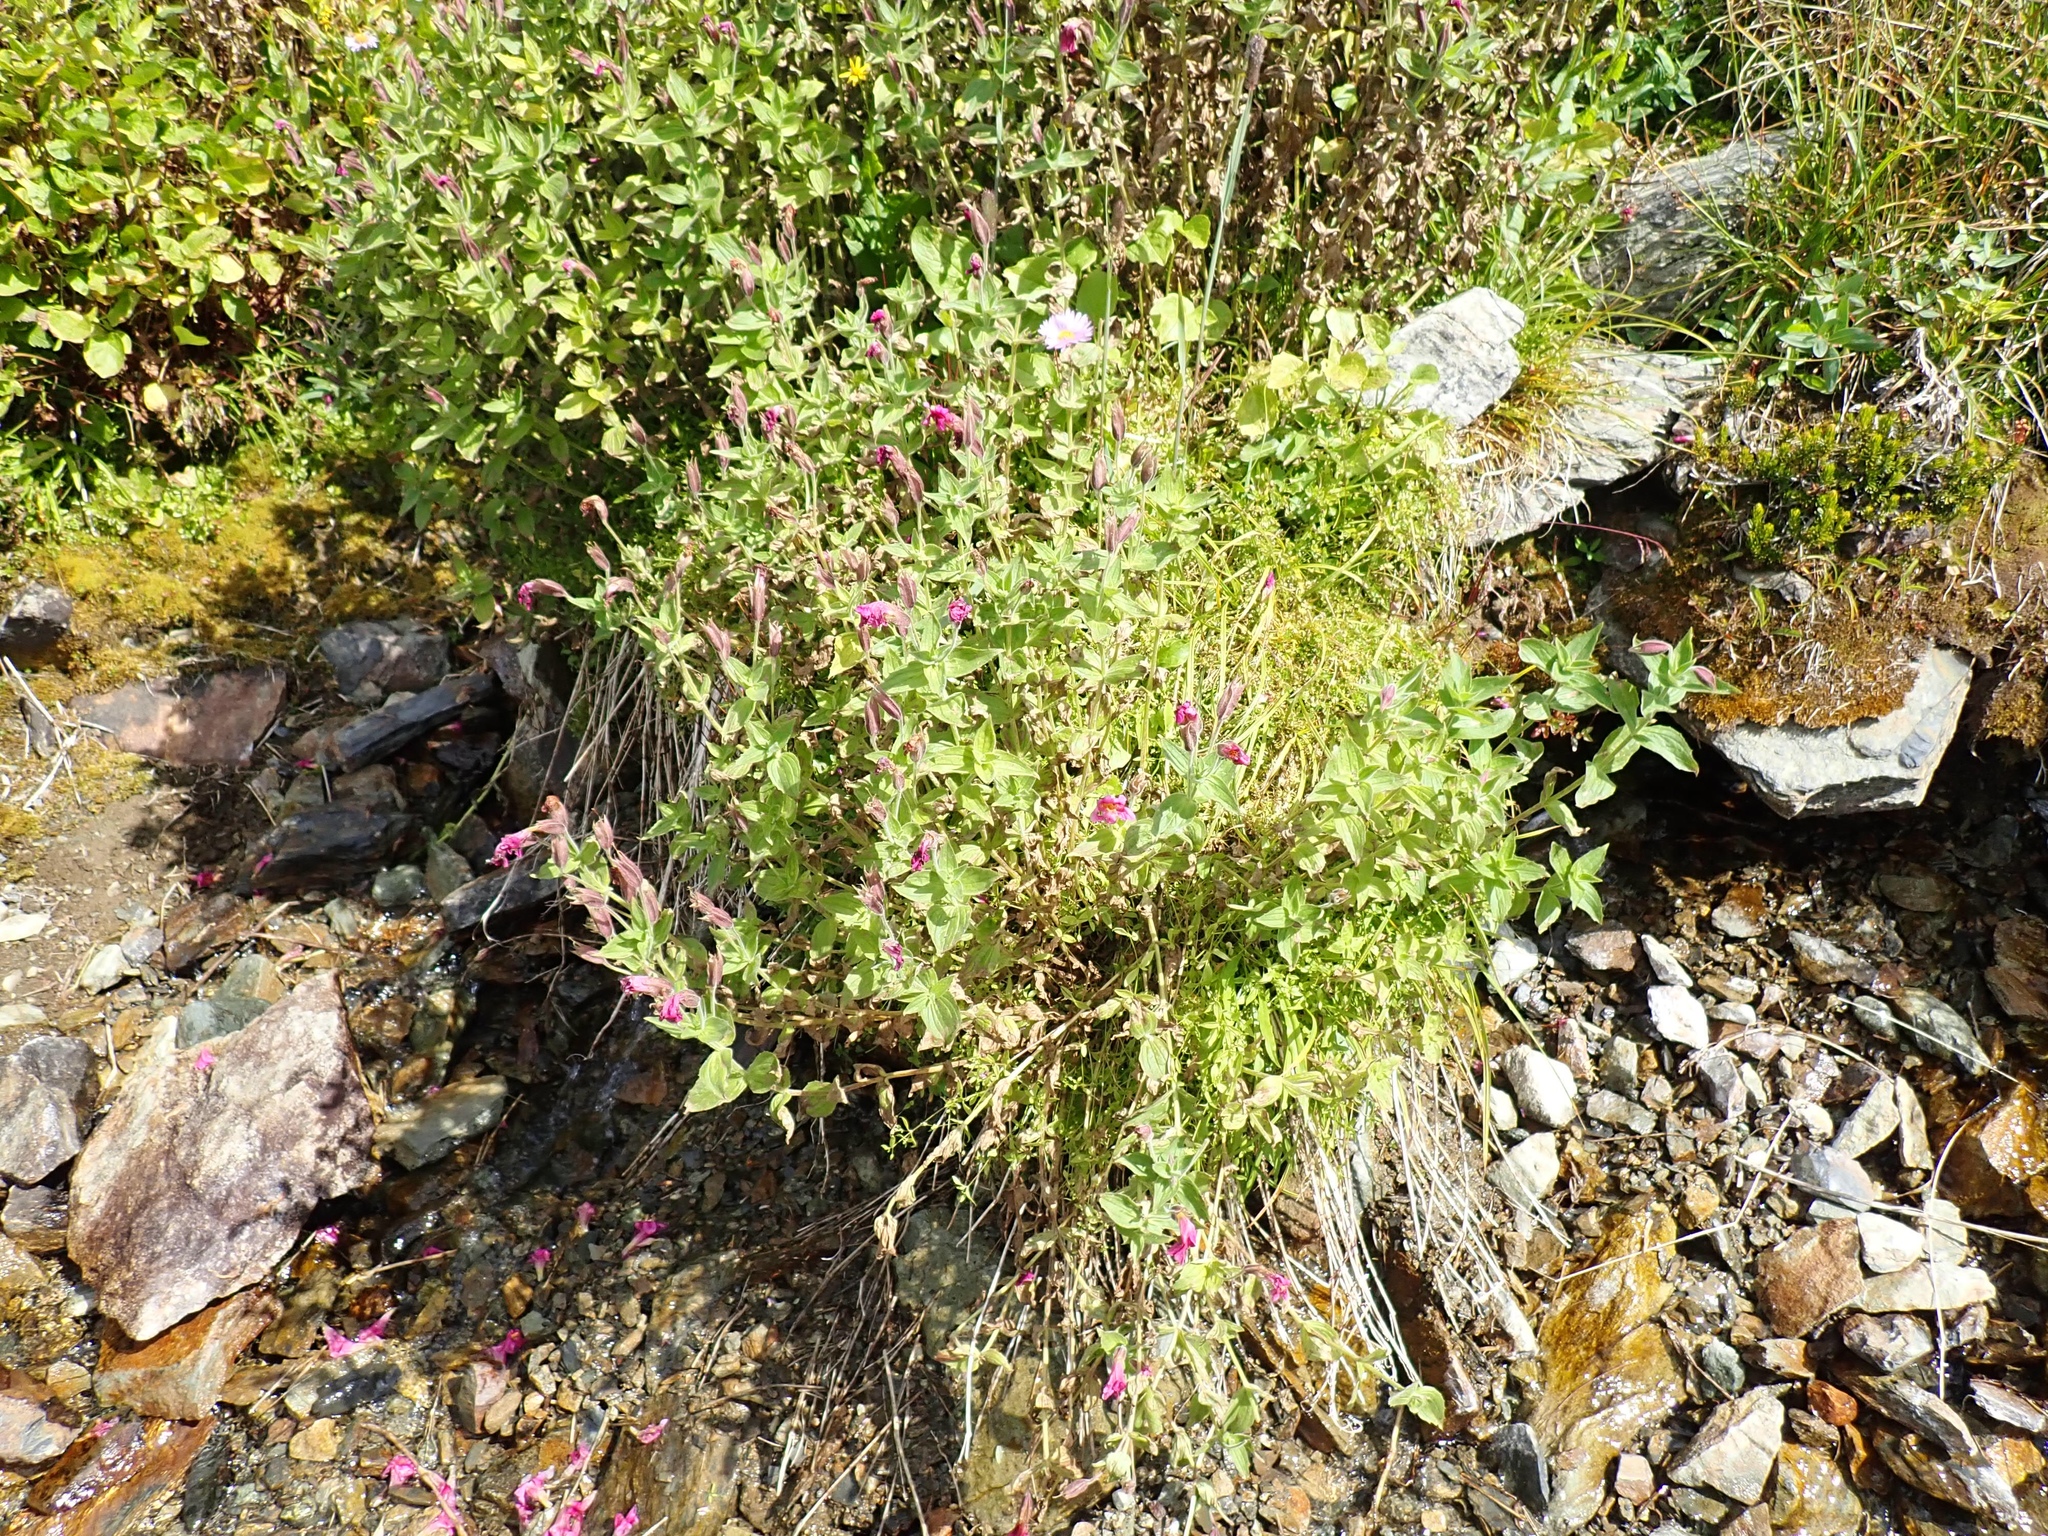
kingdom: Plantae
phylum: Tracheophyta
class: Magnoliopsida
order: Lamiales
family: Phrymaceae
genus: Erythranthe
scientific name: Erythranthe lewisii
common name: Lewis's monkey-flower
